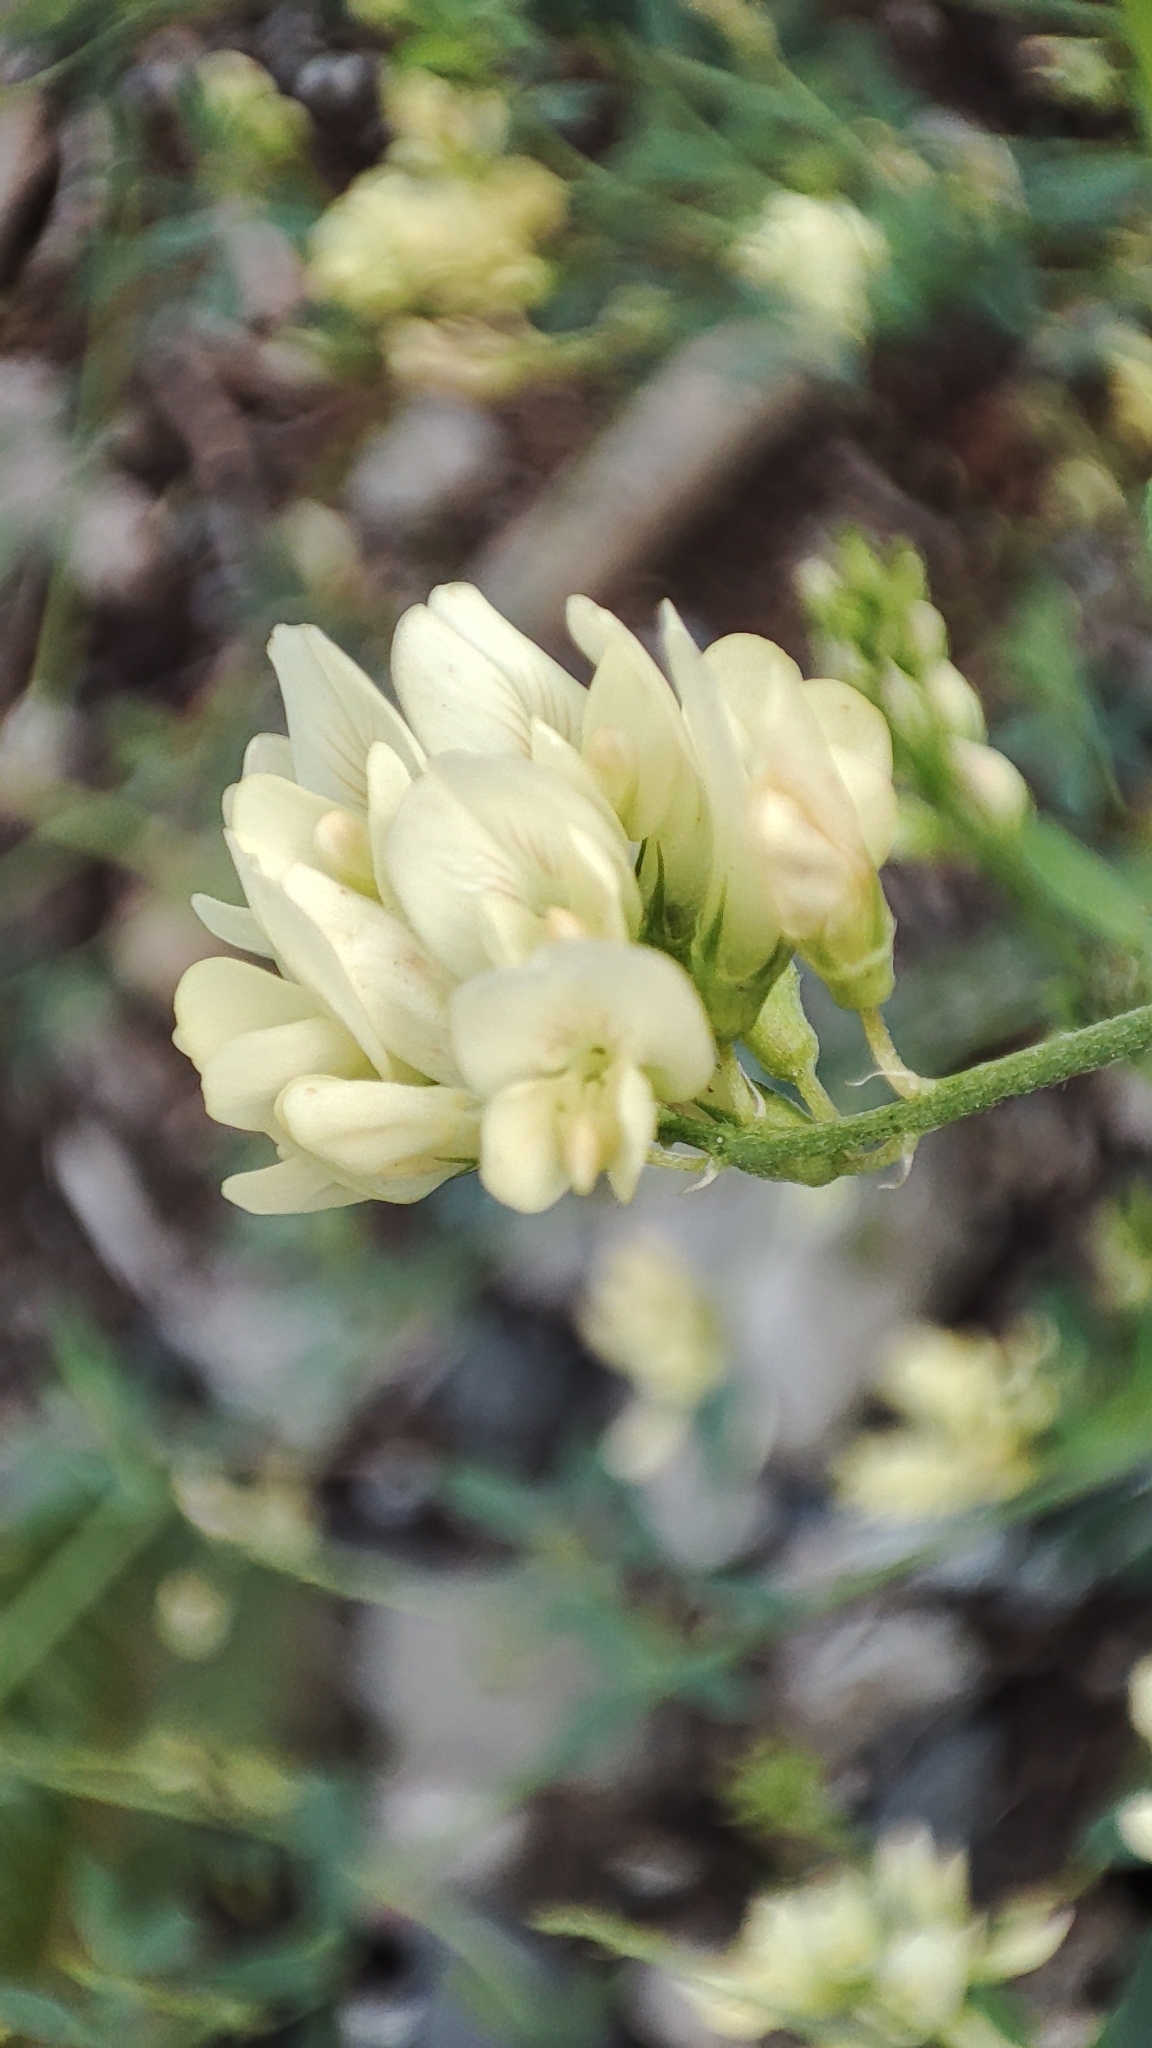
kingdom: Plantae
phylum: Tracheophyta
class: Magnoliopsida
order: Fabales
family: Fabaceae
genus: Medicago
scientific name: Medicago varia
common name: Sand lucerne
